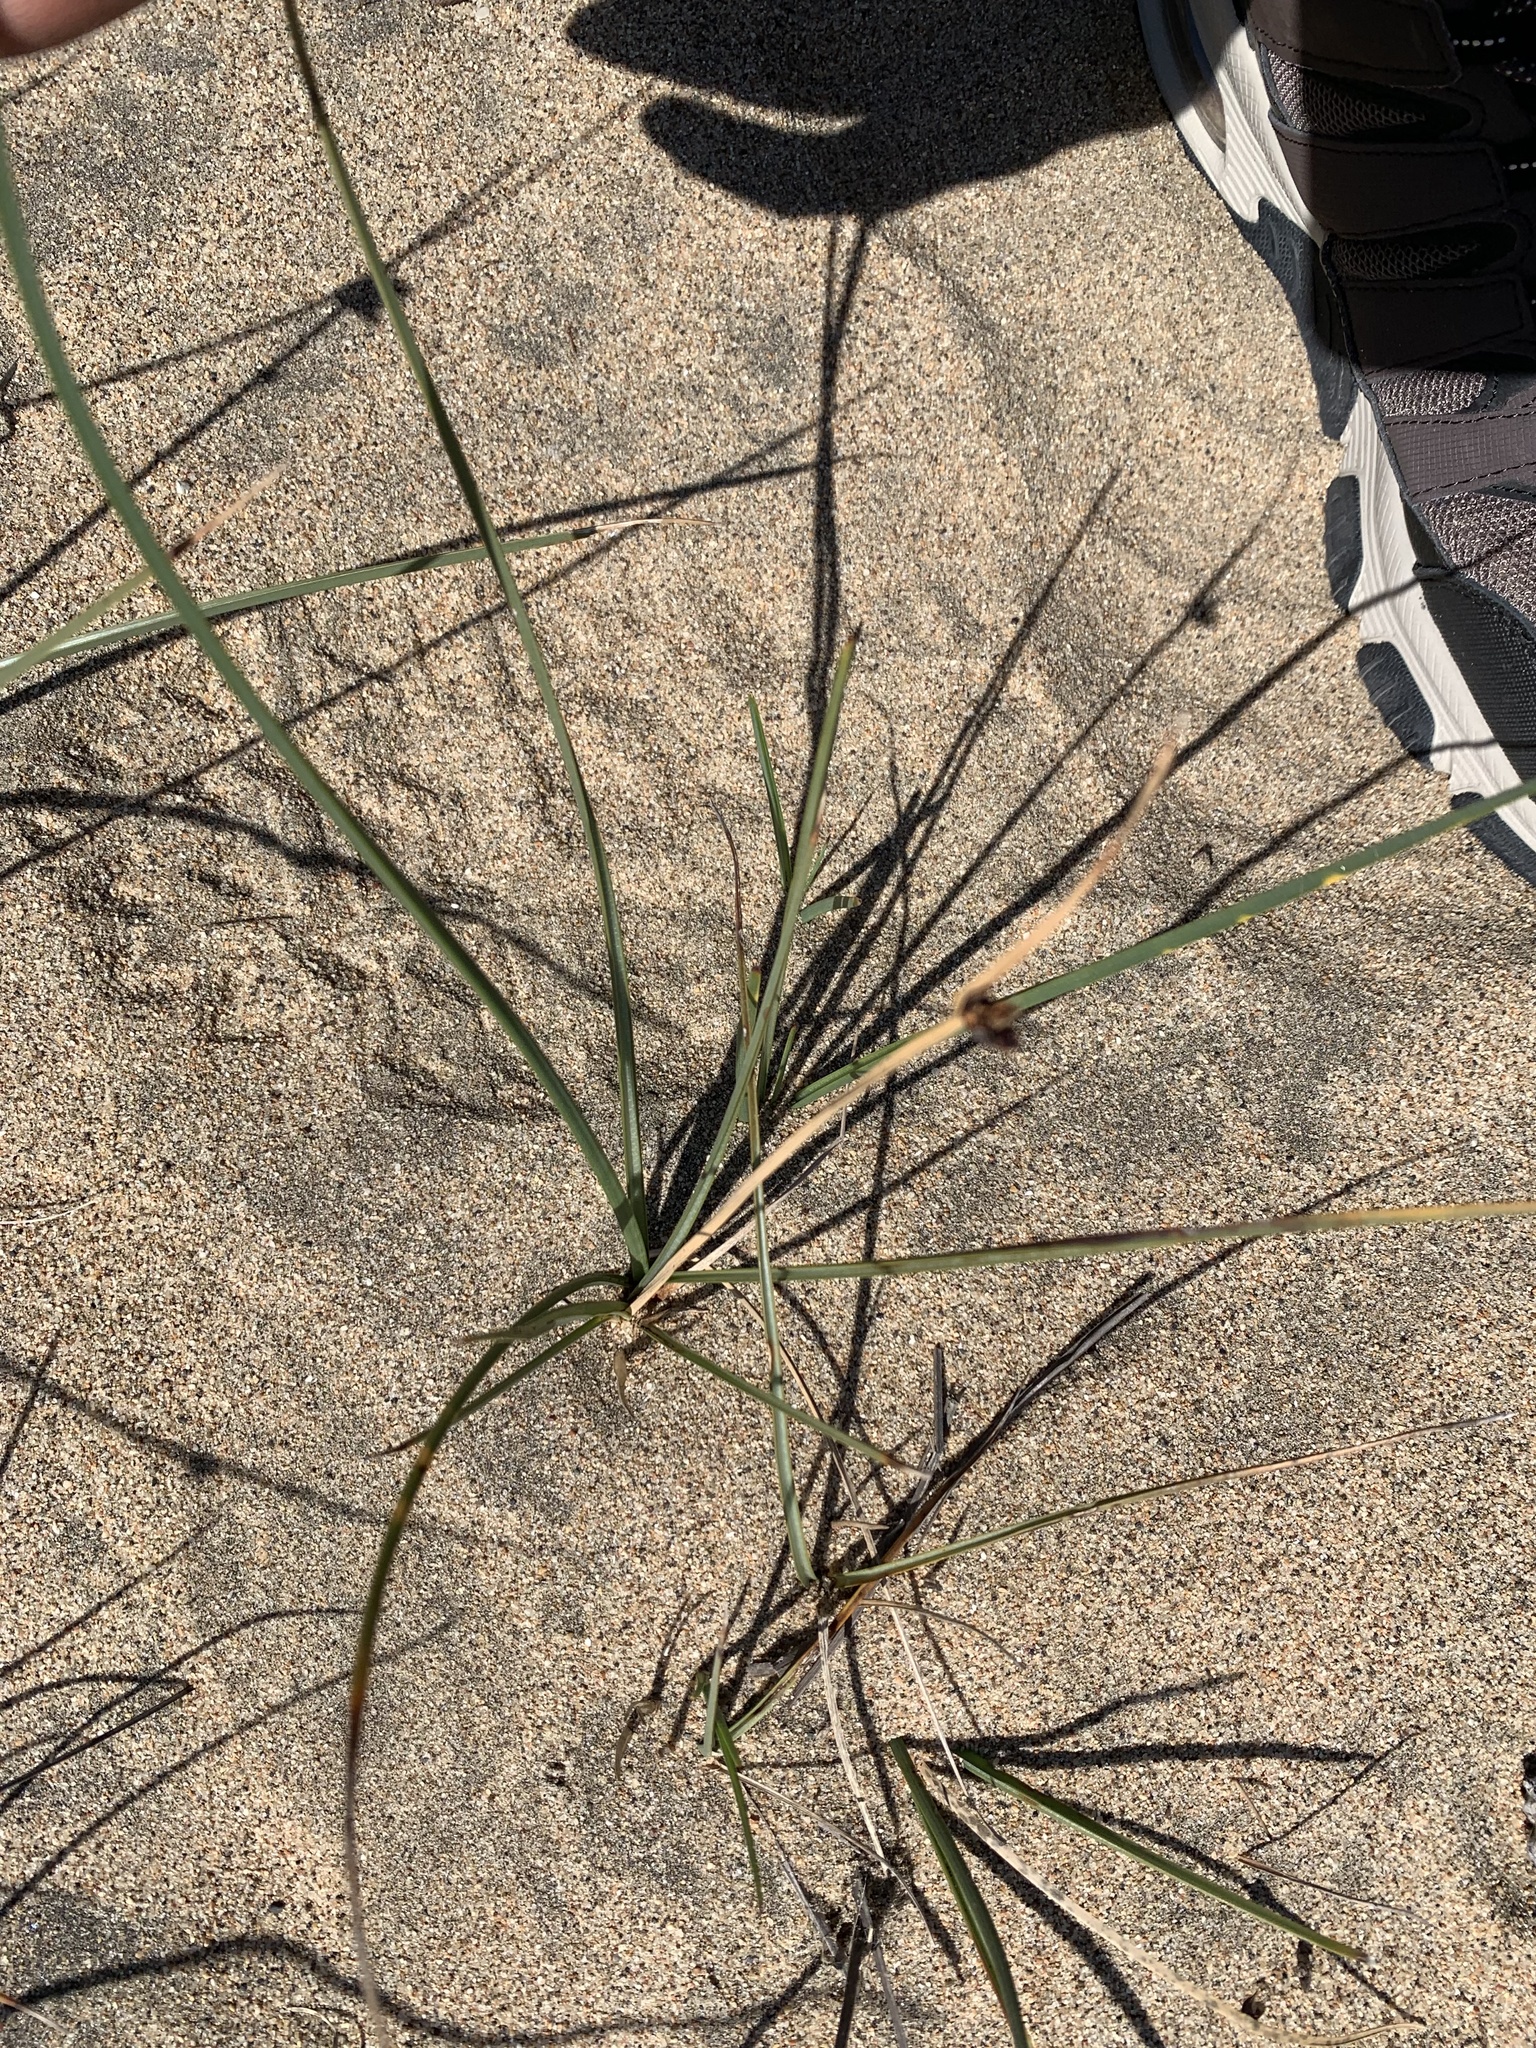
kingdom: Plantae
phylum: Tracheophyta
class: Liliopsida
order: Poales
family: Cyperaceae
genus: Schoenoplectus
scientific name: Schoenoplectus pungens
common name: Sharp club-rush
